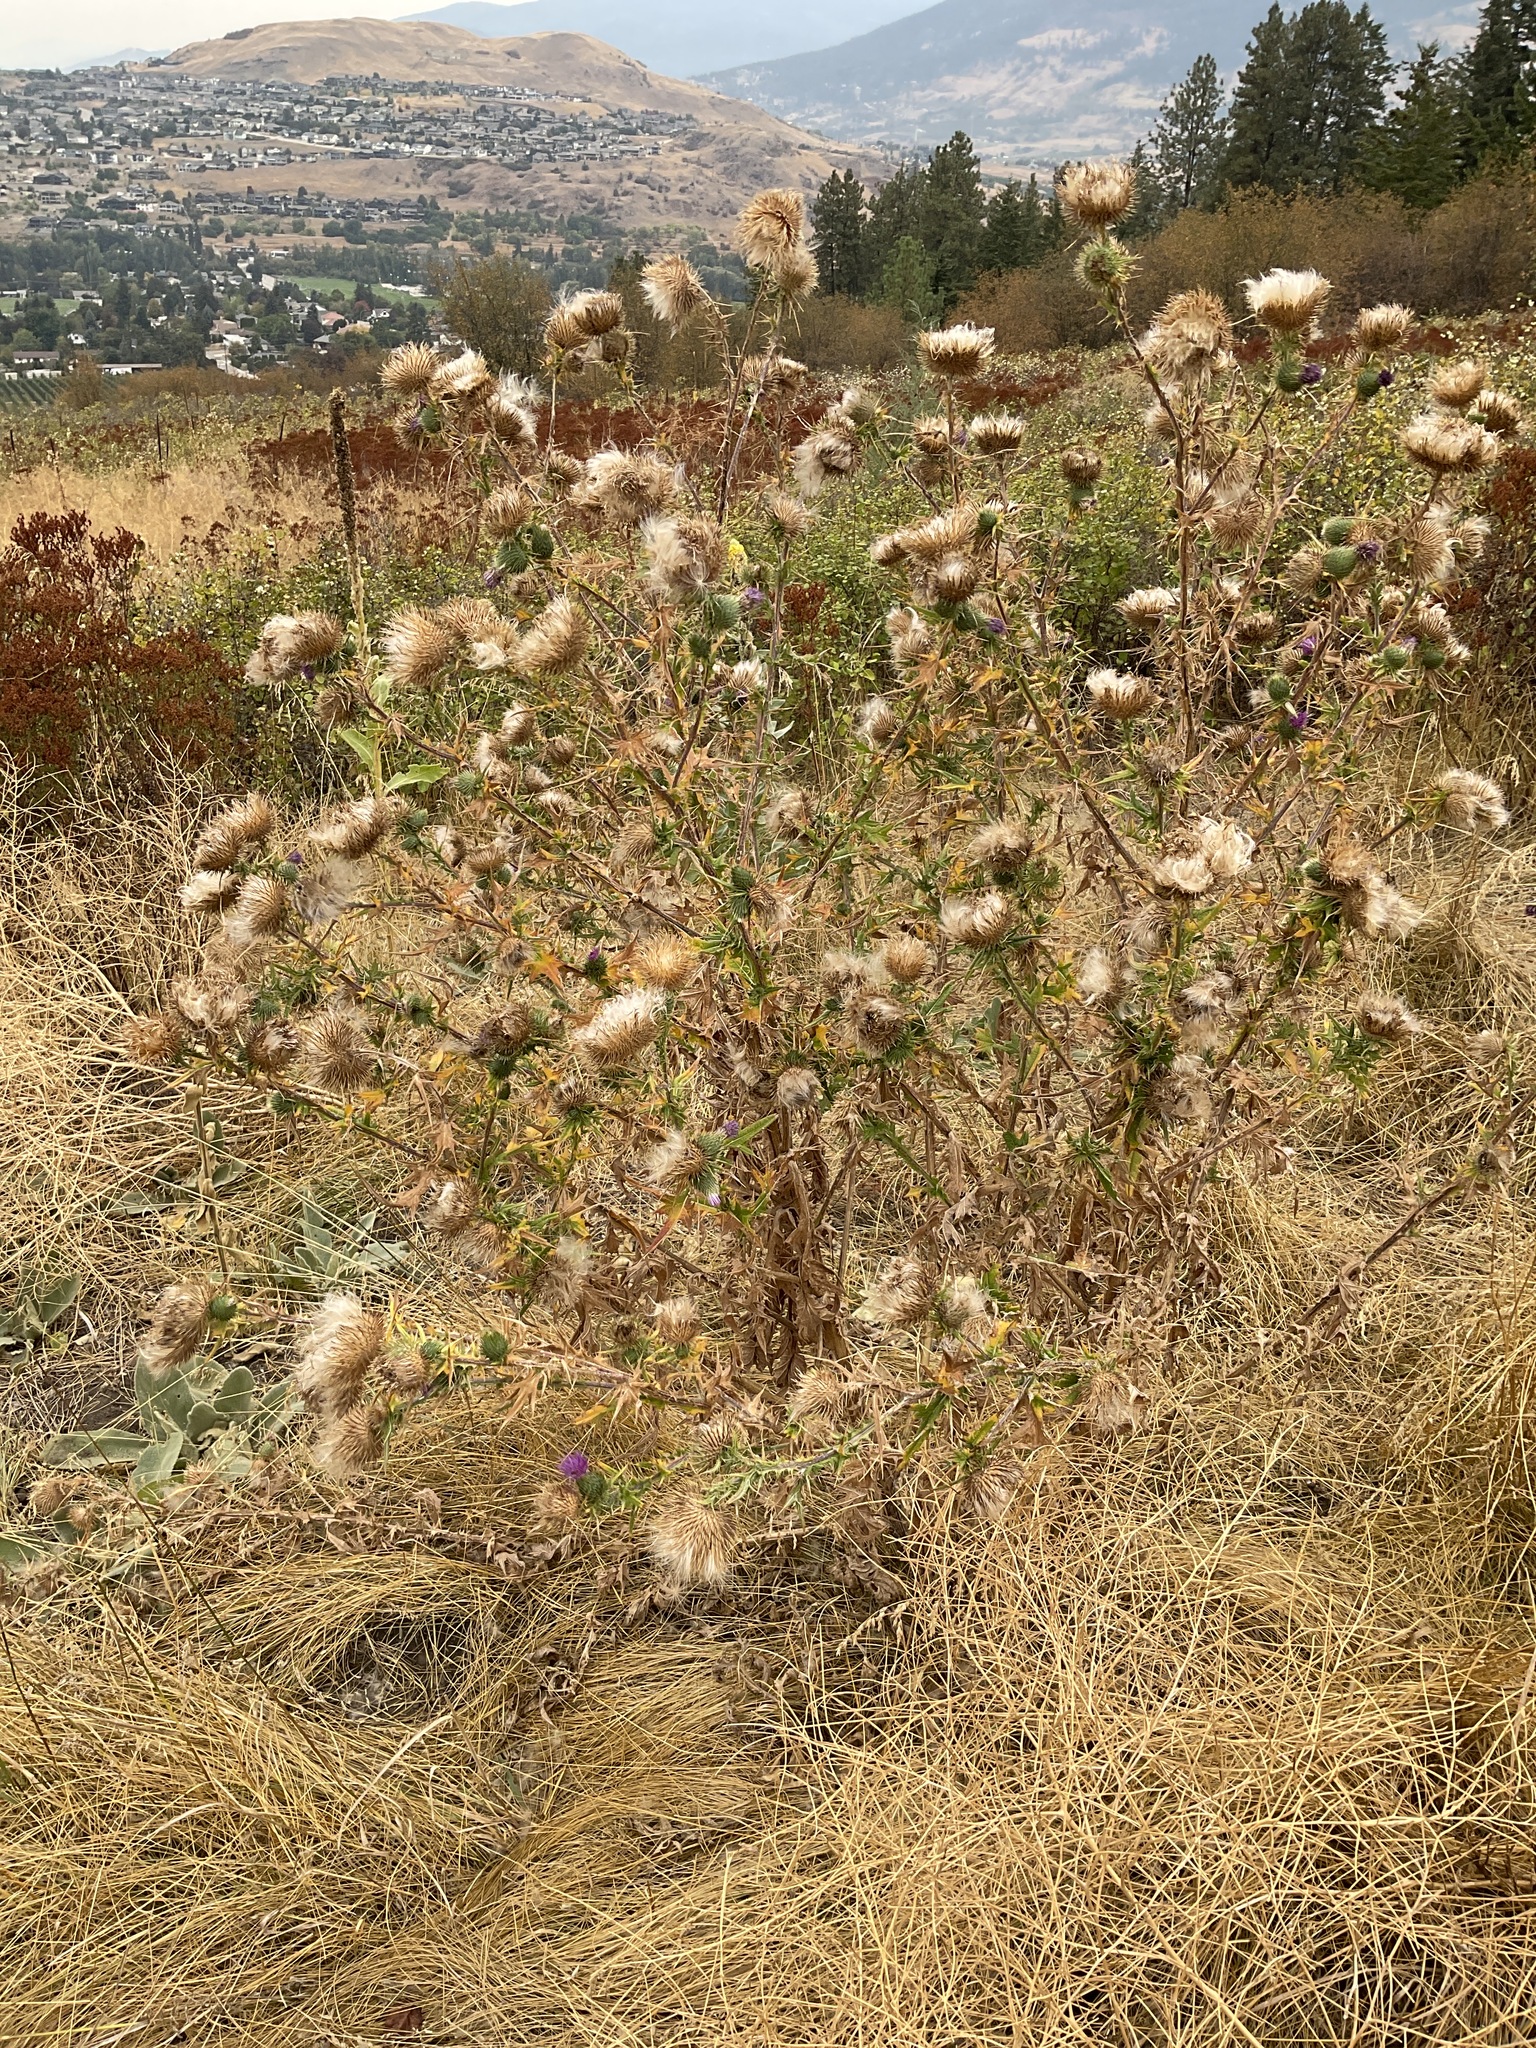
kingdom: Plantae
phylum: Tracheophyta
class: Magnoliopsida
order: Asterales
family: Asteraceae
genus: Cirsium
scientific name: Cirsium vulgare
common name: Bull thistle
